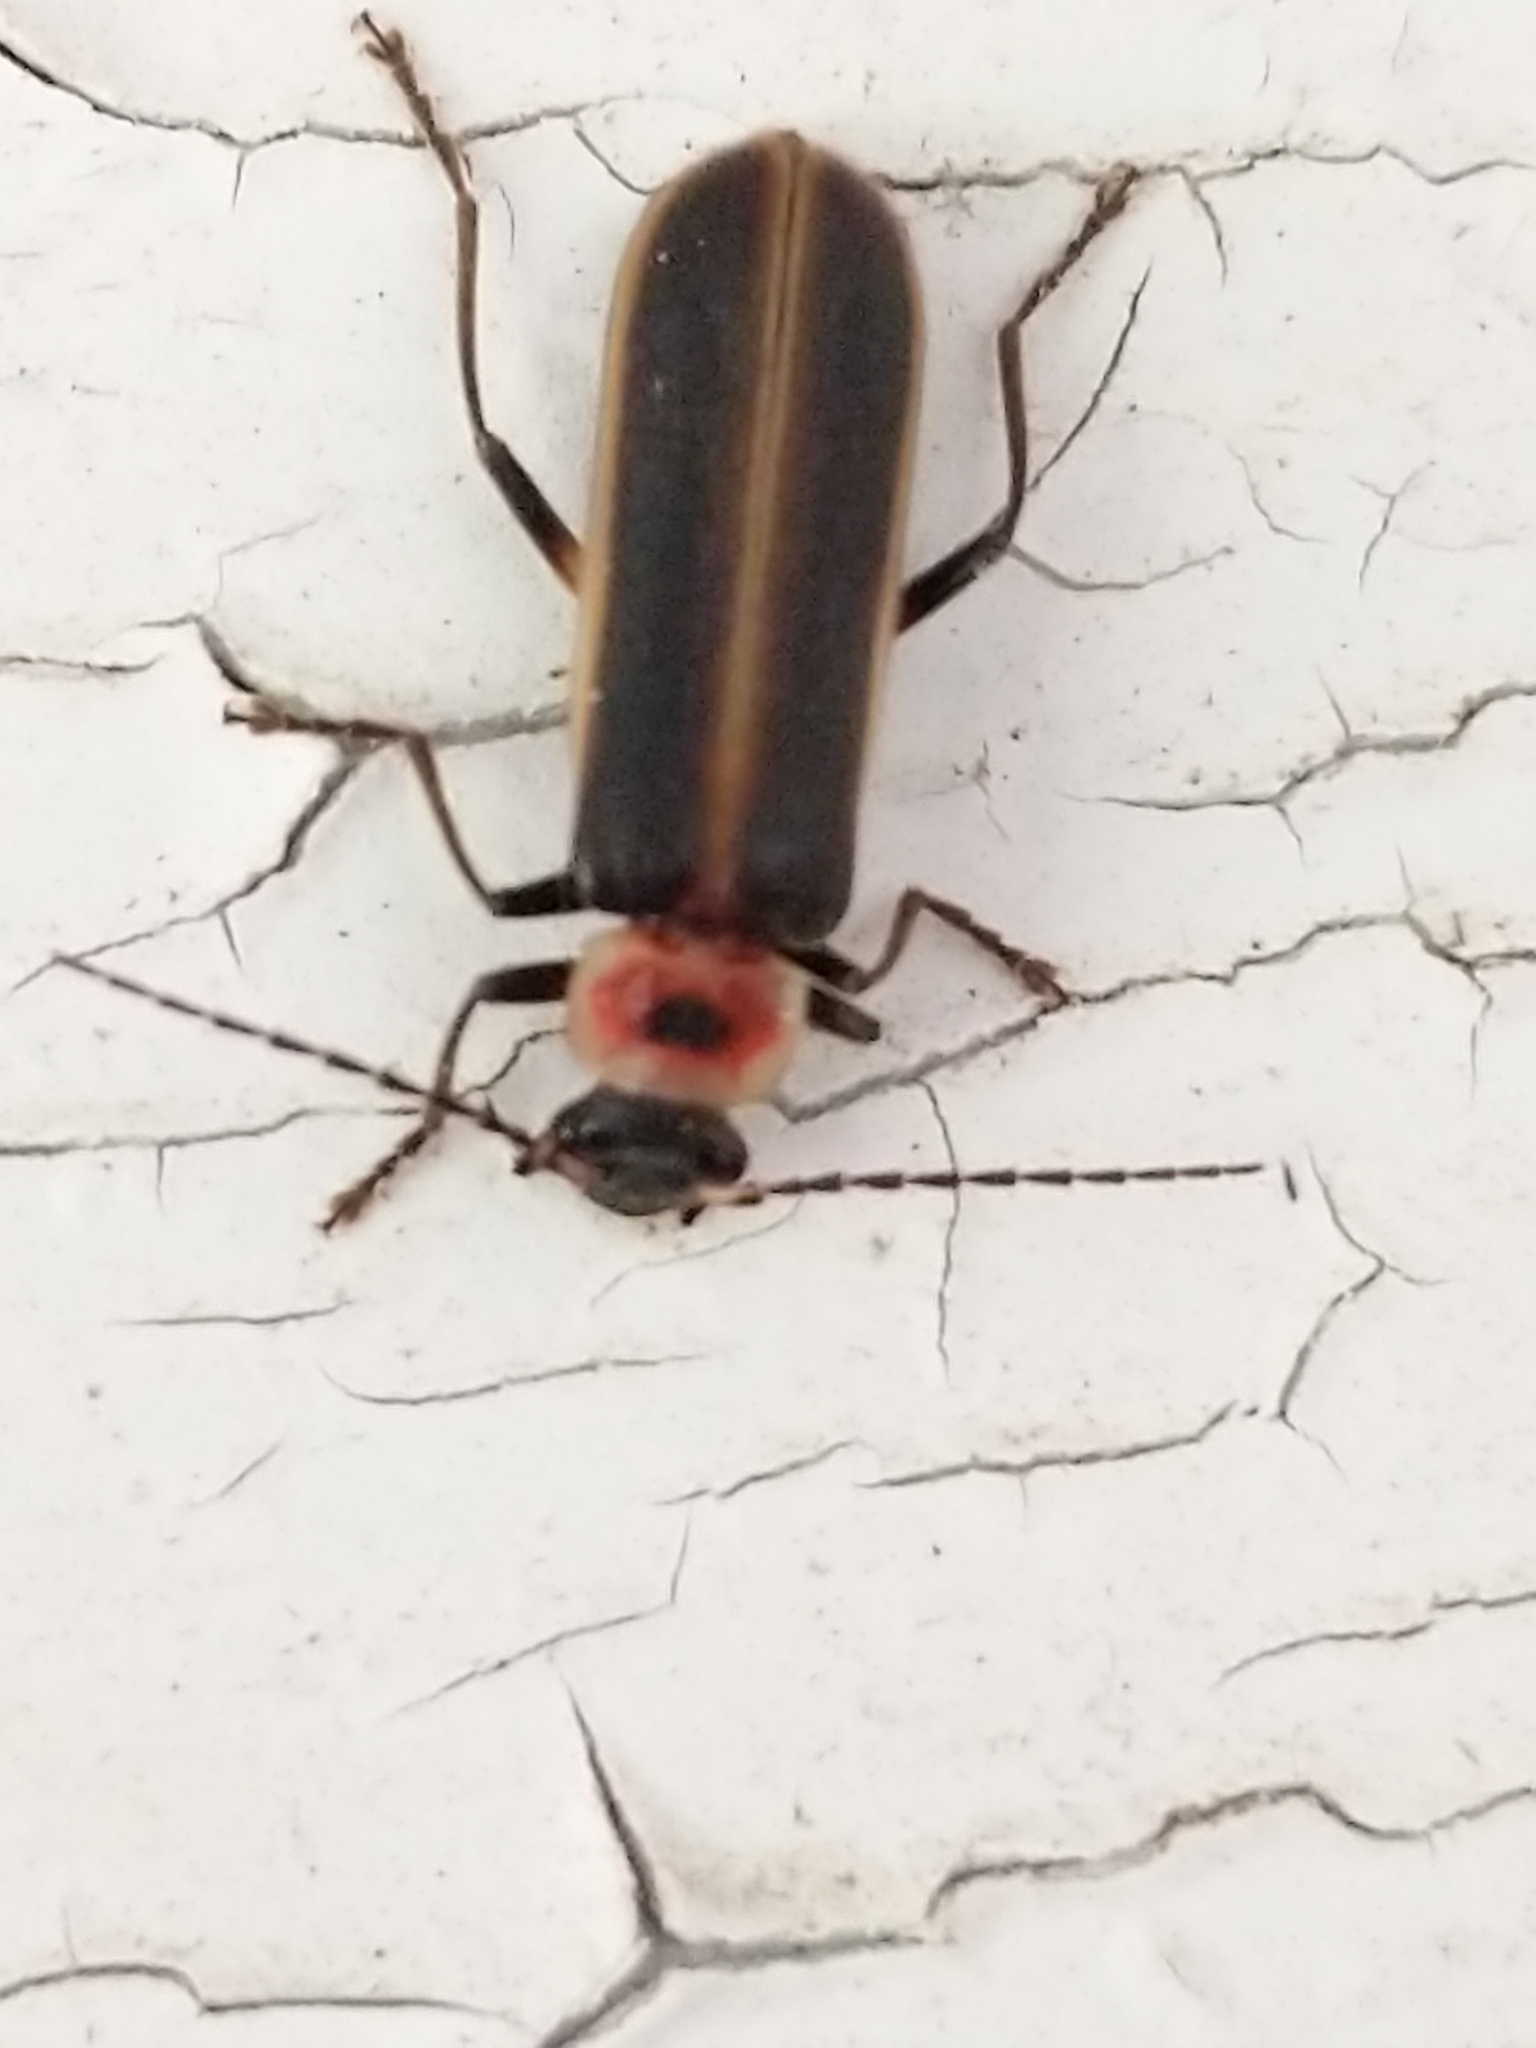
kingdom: Animalia
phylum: Arthropoda
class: Insecta
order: Coleoptera
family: Cantharidae
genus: Podabrus
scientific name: Podabrus appendiculatus
